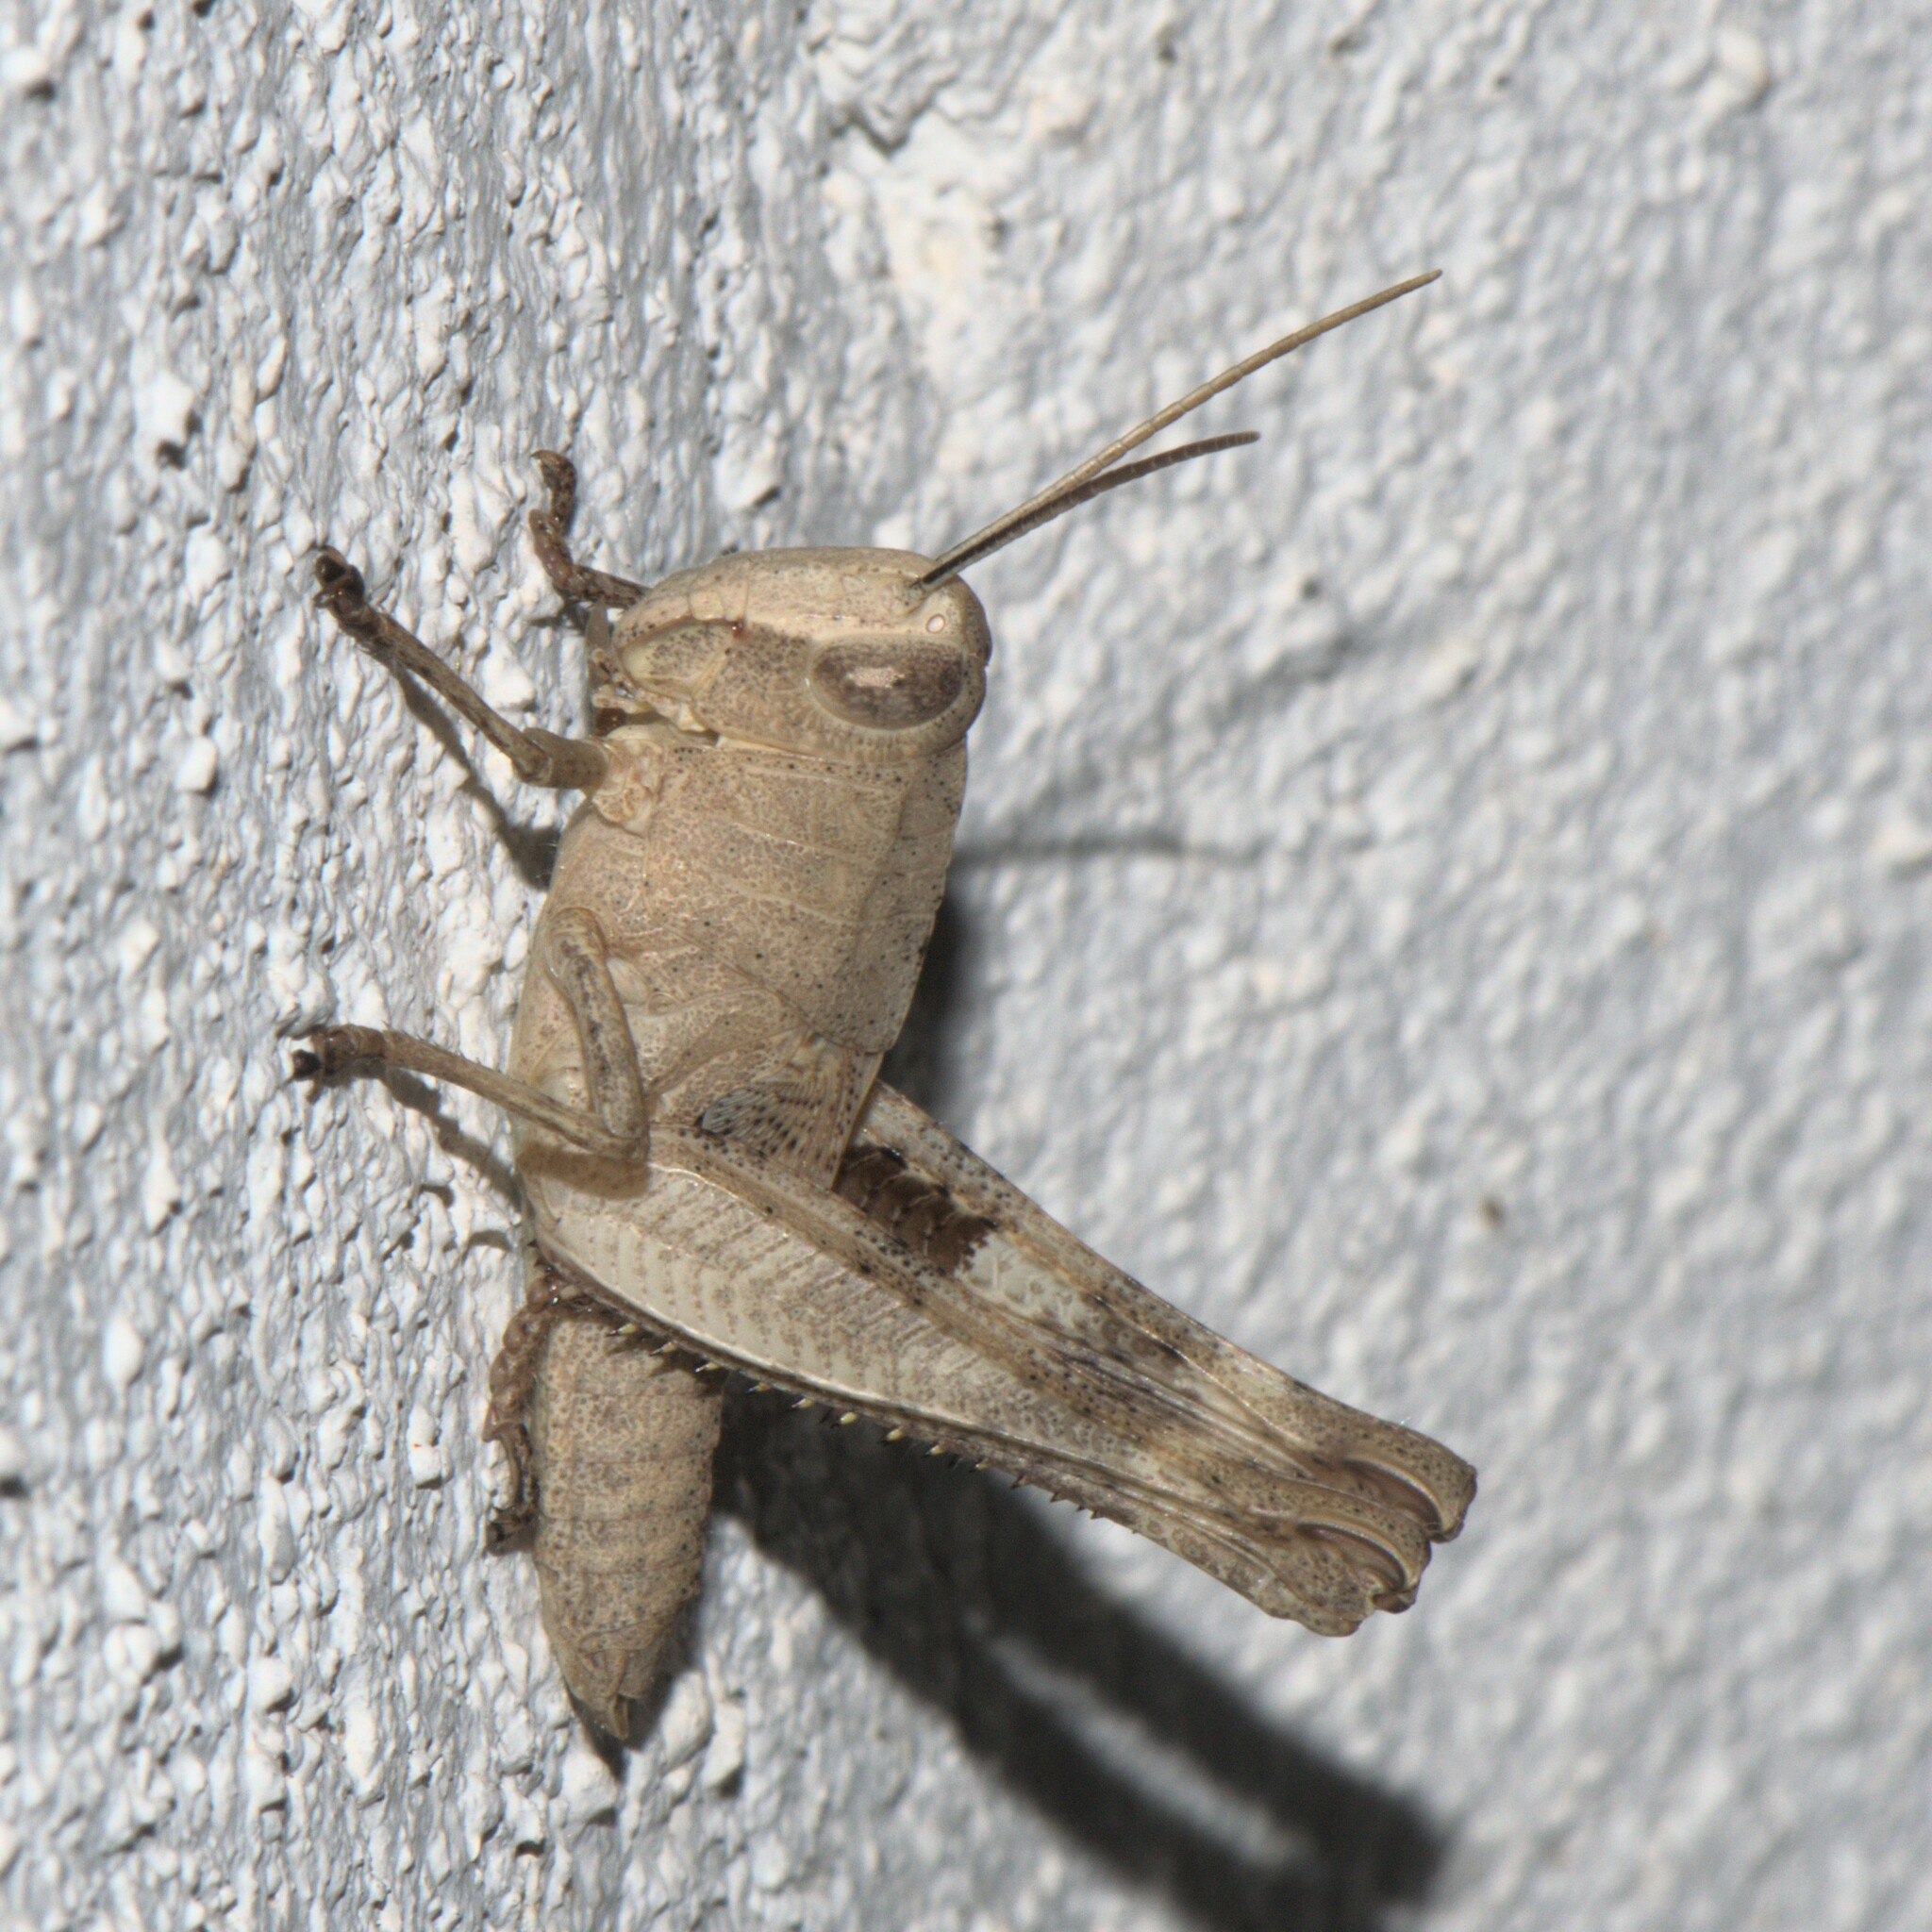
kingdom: Animalia
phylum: Arthropoda
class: Insecta
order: Orthoptera
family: Acrididae
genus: Heteracris
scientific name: Heteracris pulchra
